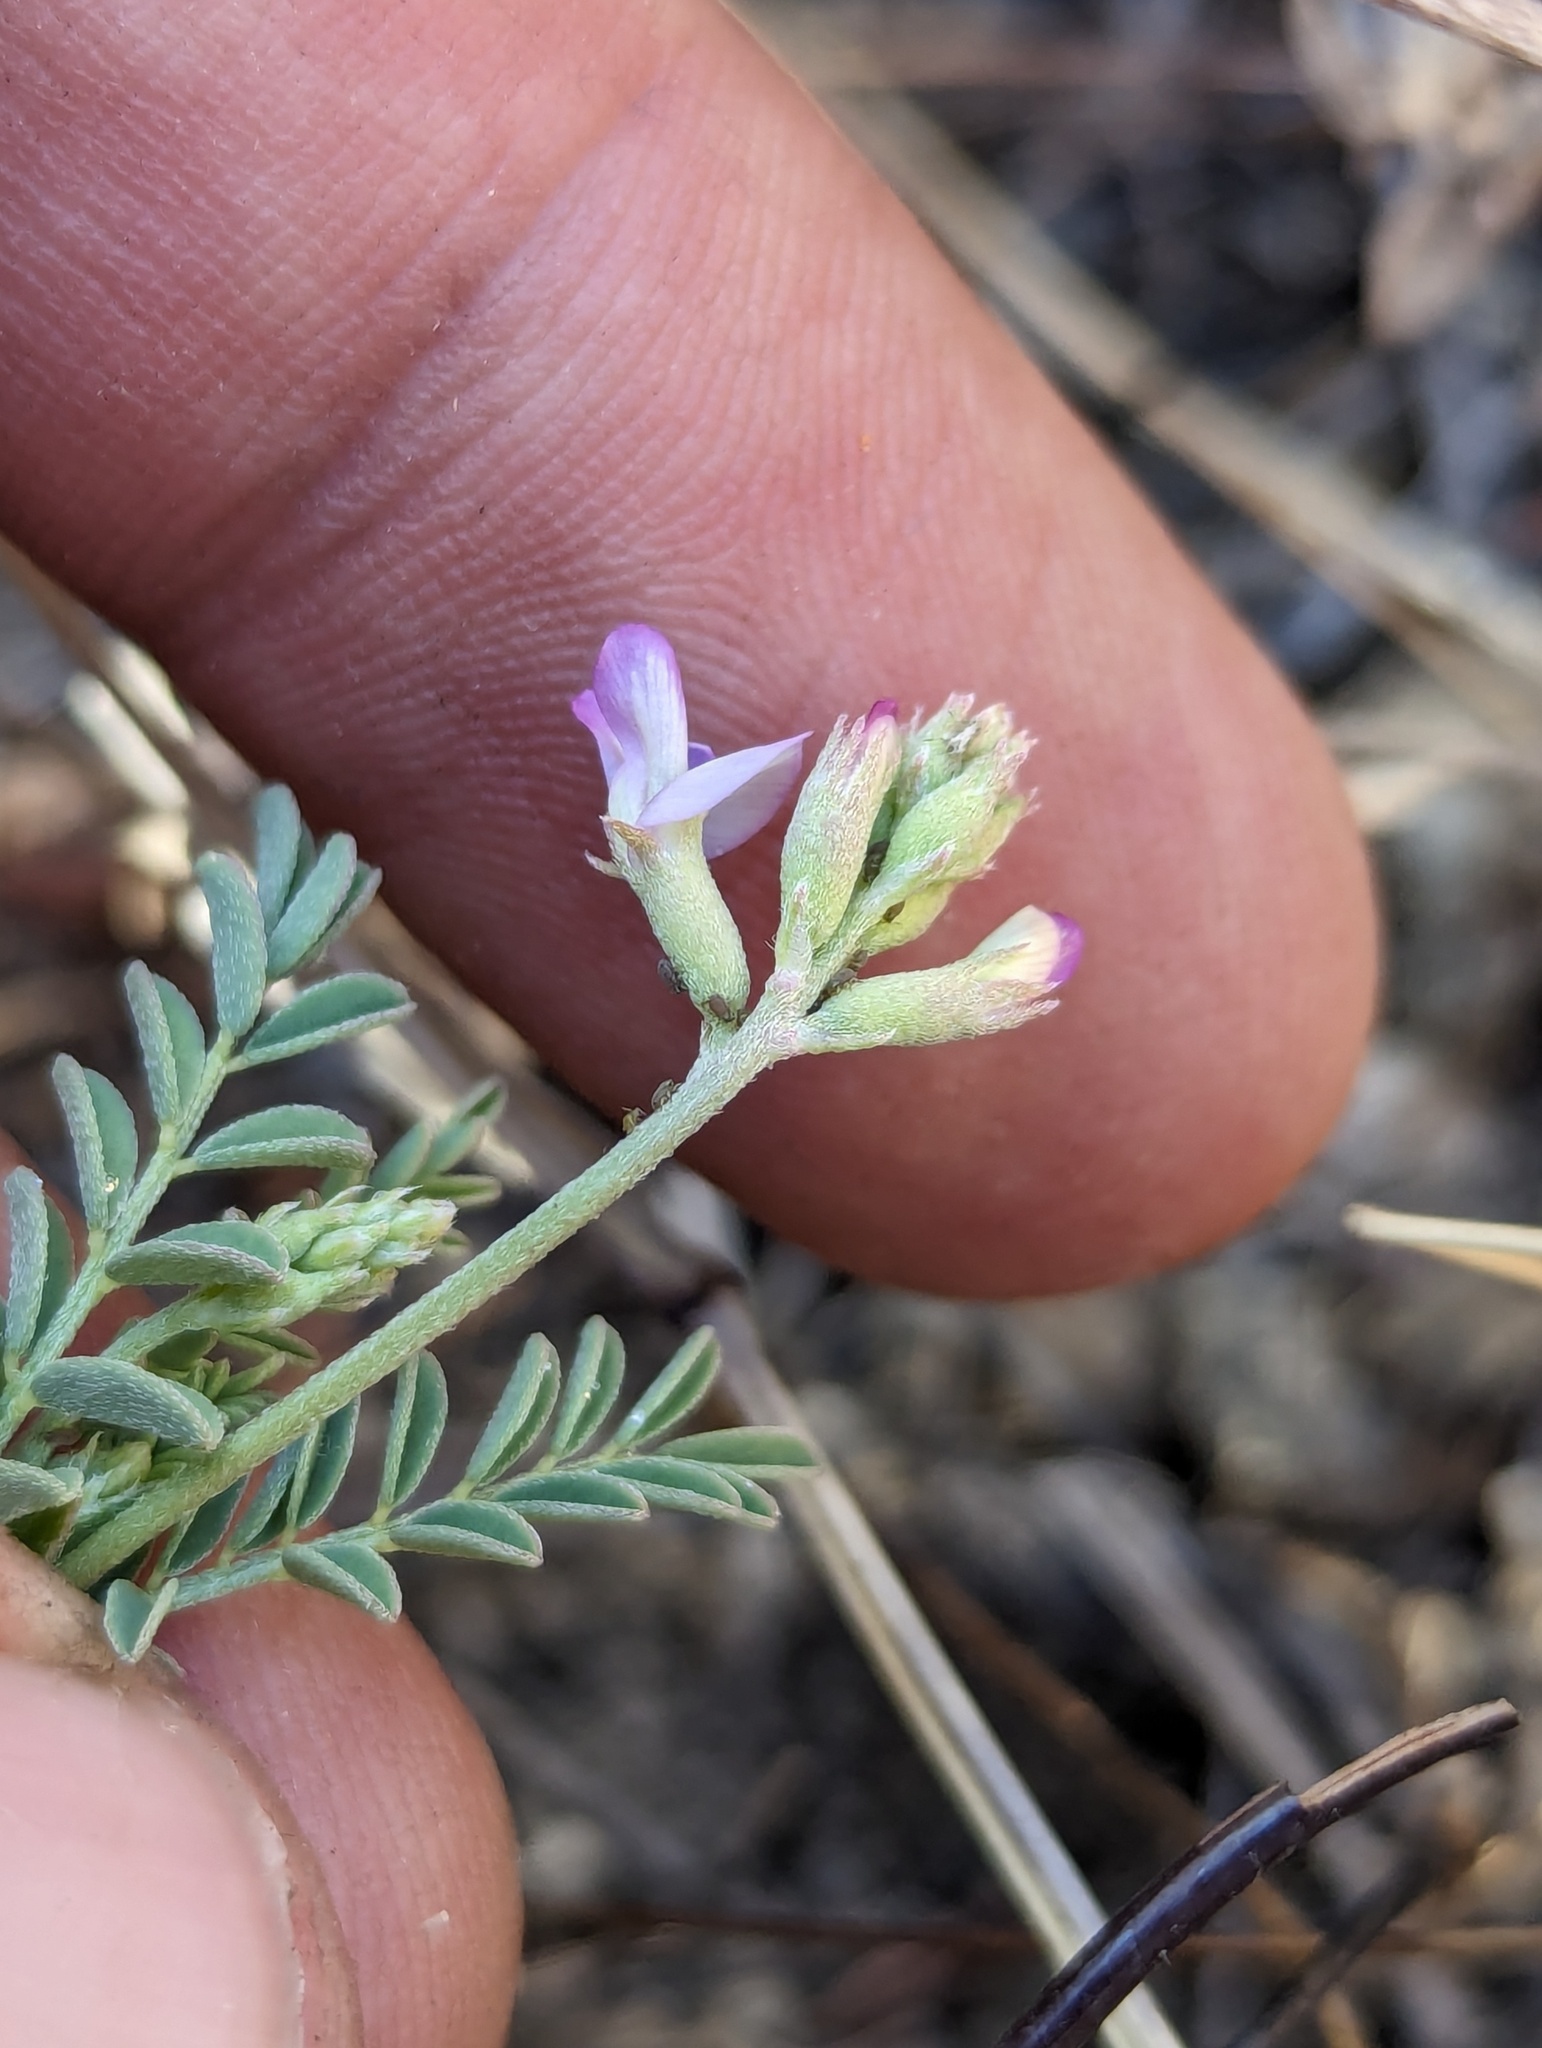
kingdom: Plantae
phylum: Tracheophyta
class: Magnoliopsida
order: Fabales
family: Fabaceae
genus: Astragalus
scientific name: Astragalus francisquitensis
